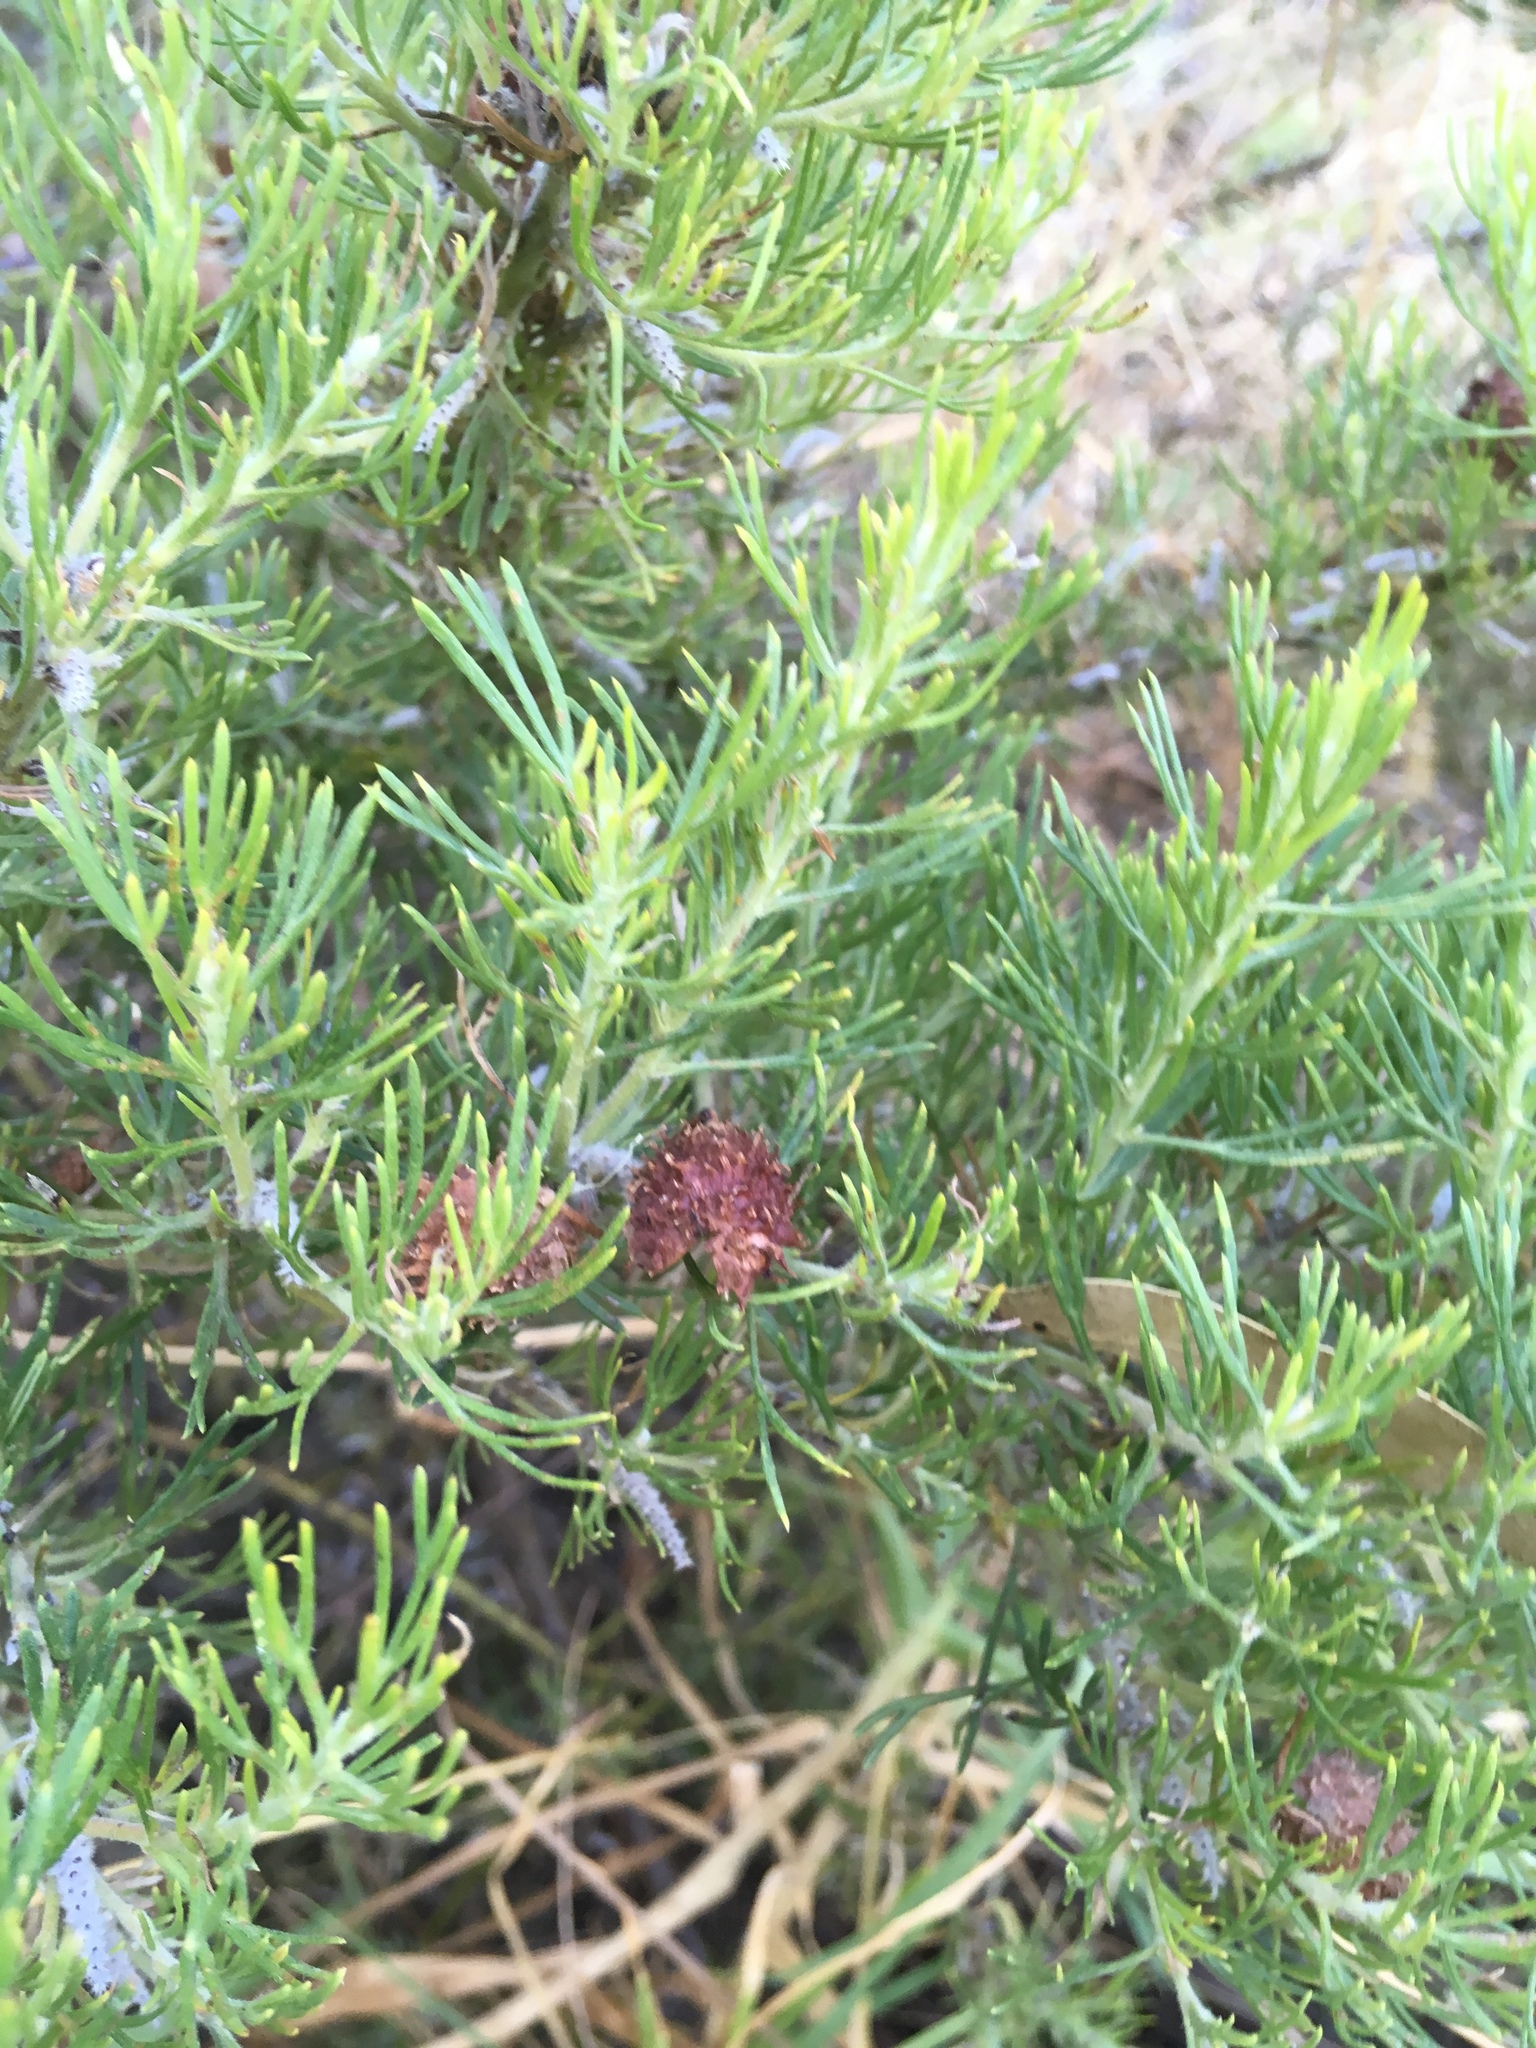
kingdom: Plantae
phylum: Tracheophyta
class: Magnoliopsida
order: Proteales
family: Proteaceae
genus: Grevillea
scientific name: Grevillea crithmifolia
